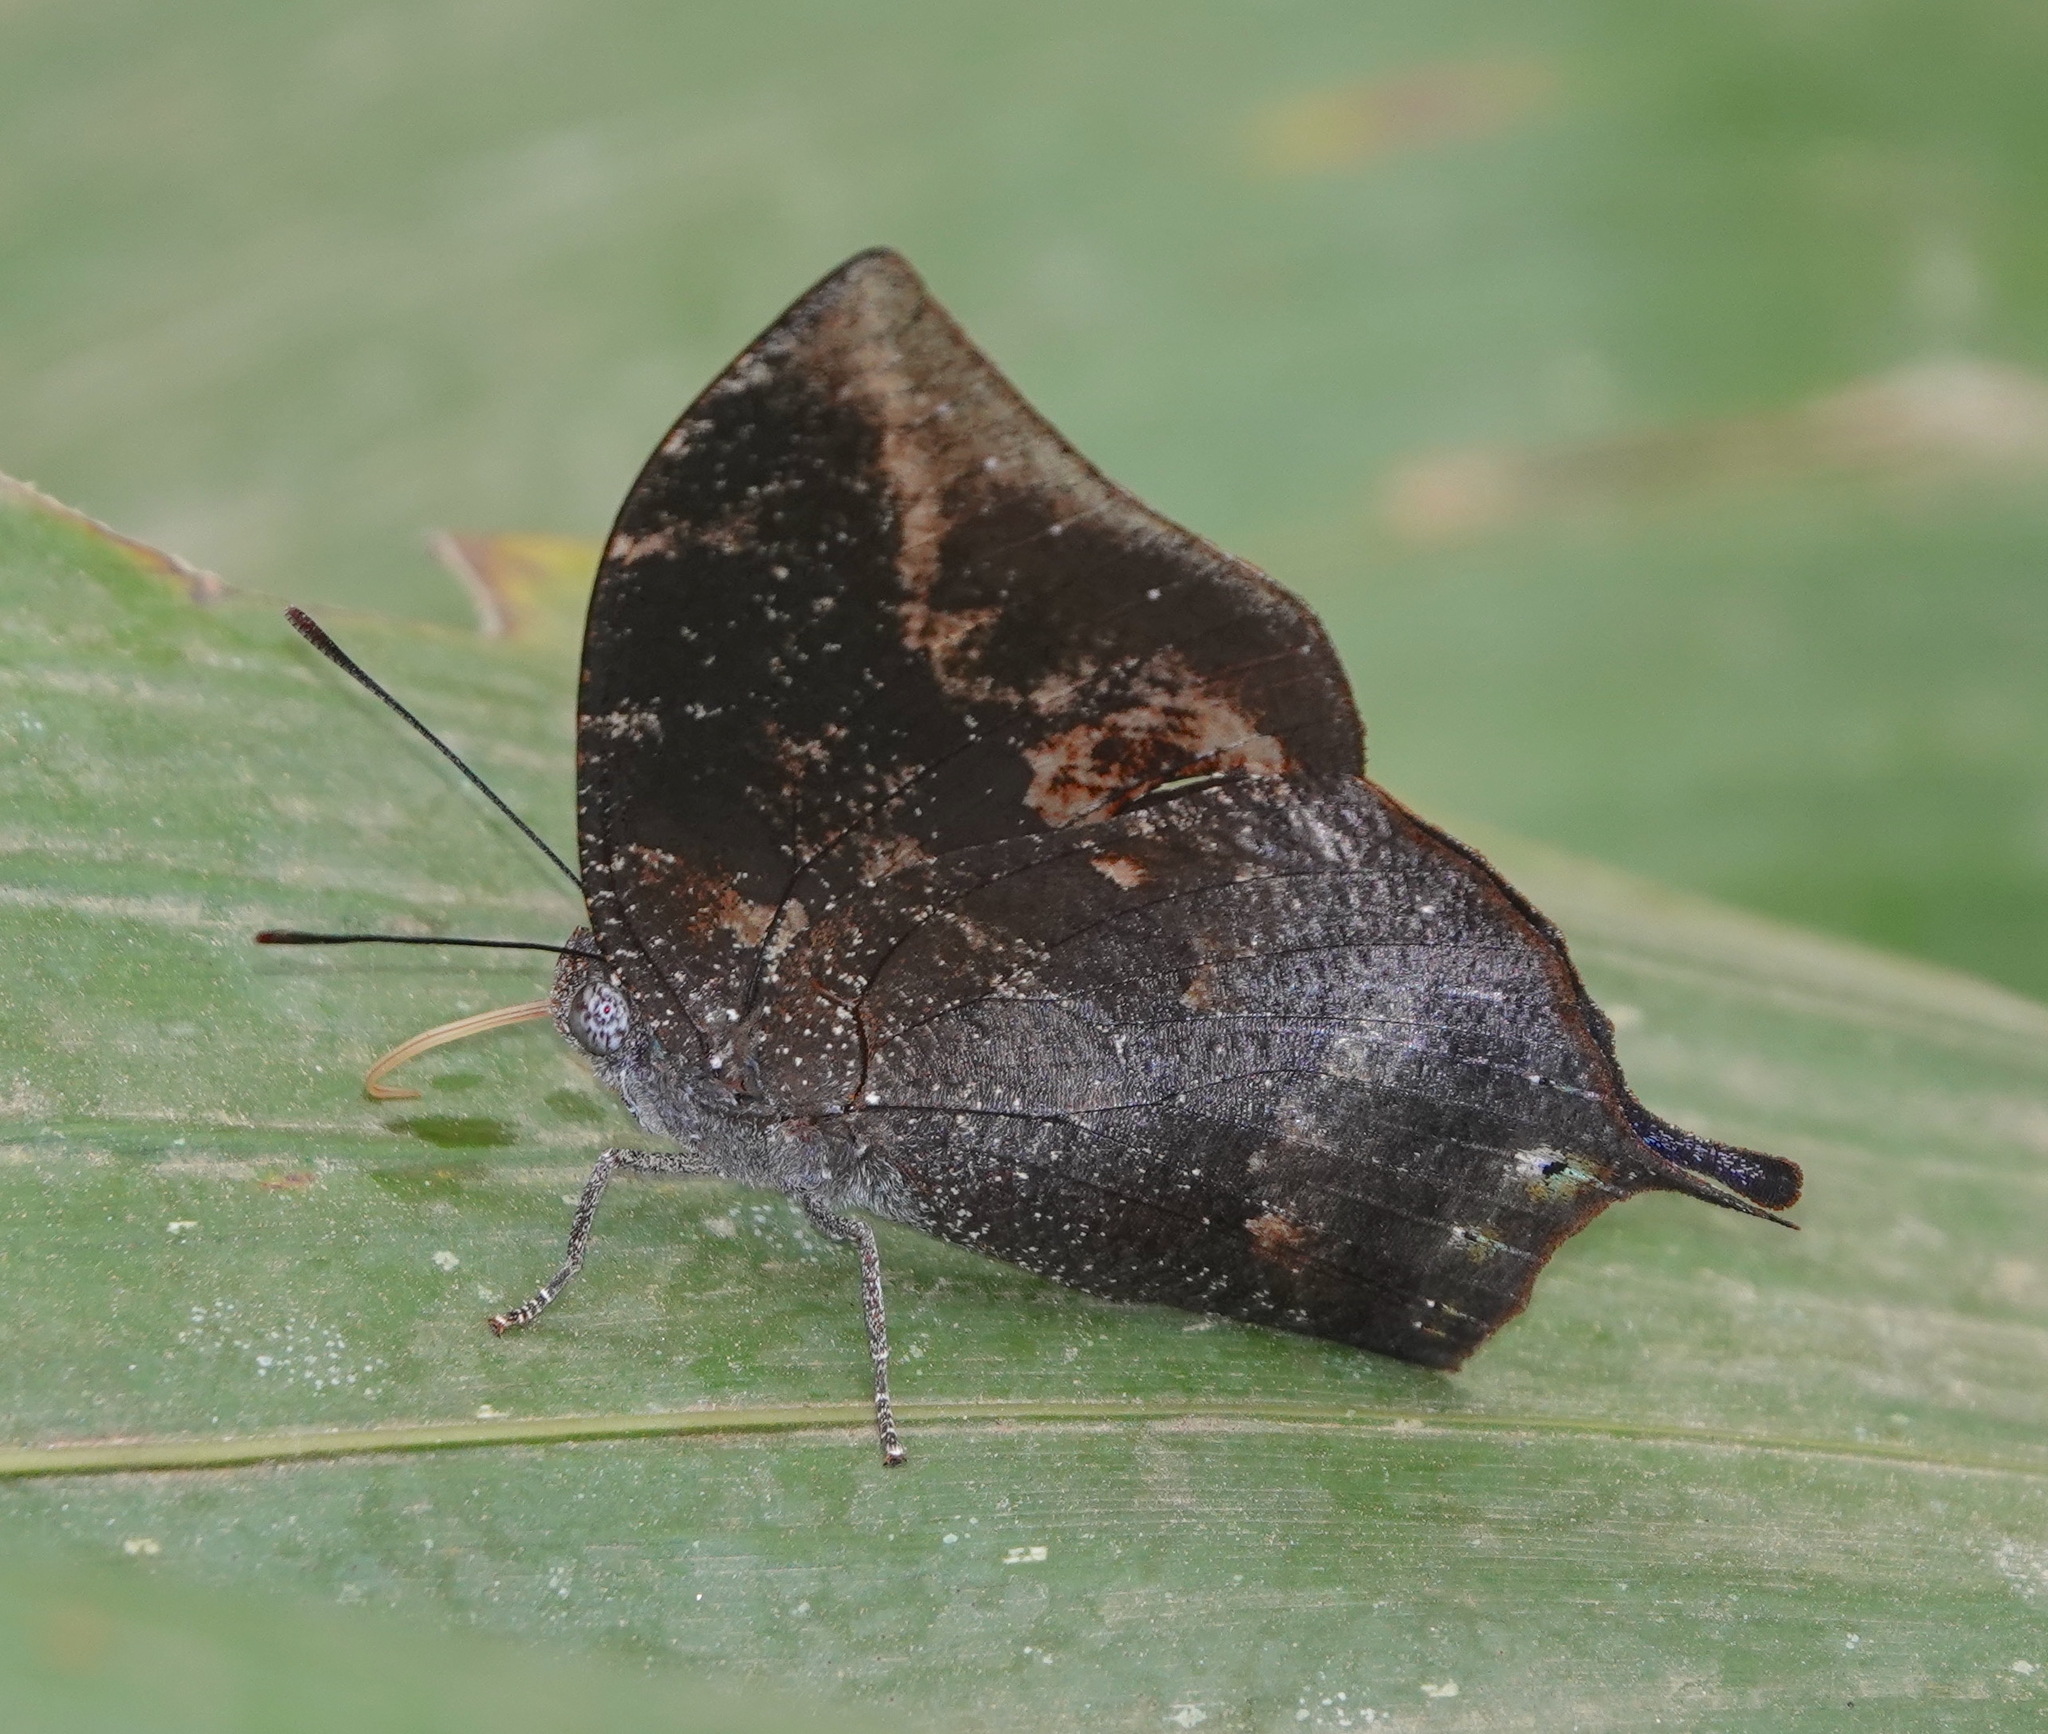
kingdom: Animalia
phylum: Arthropoda
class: Insecta
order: Lepidoptera
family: Nymphalidae
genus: Anaea
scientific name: Anaea arachne
